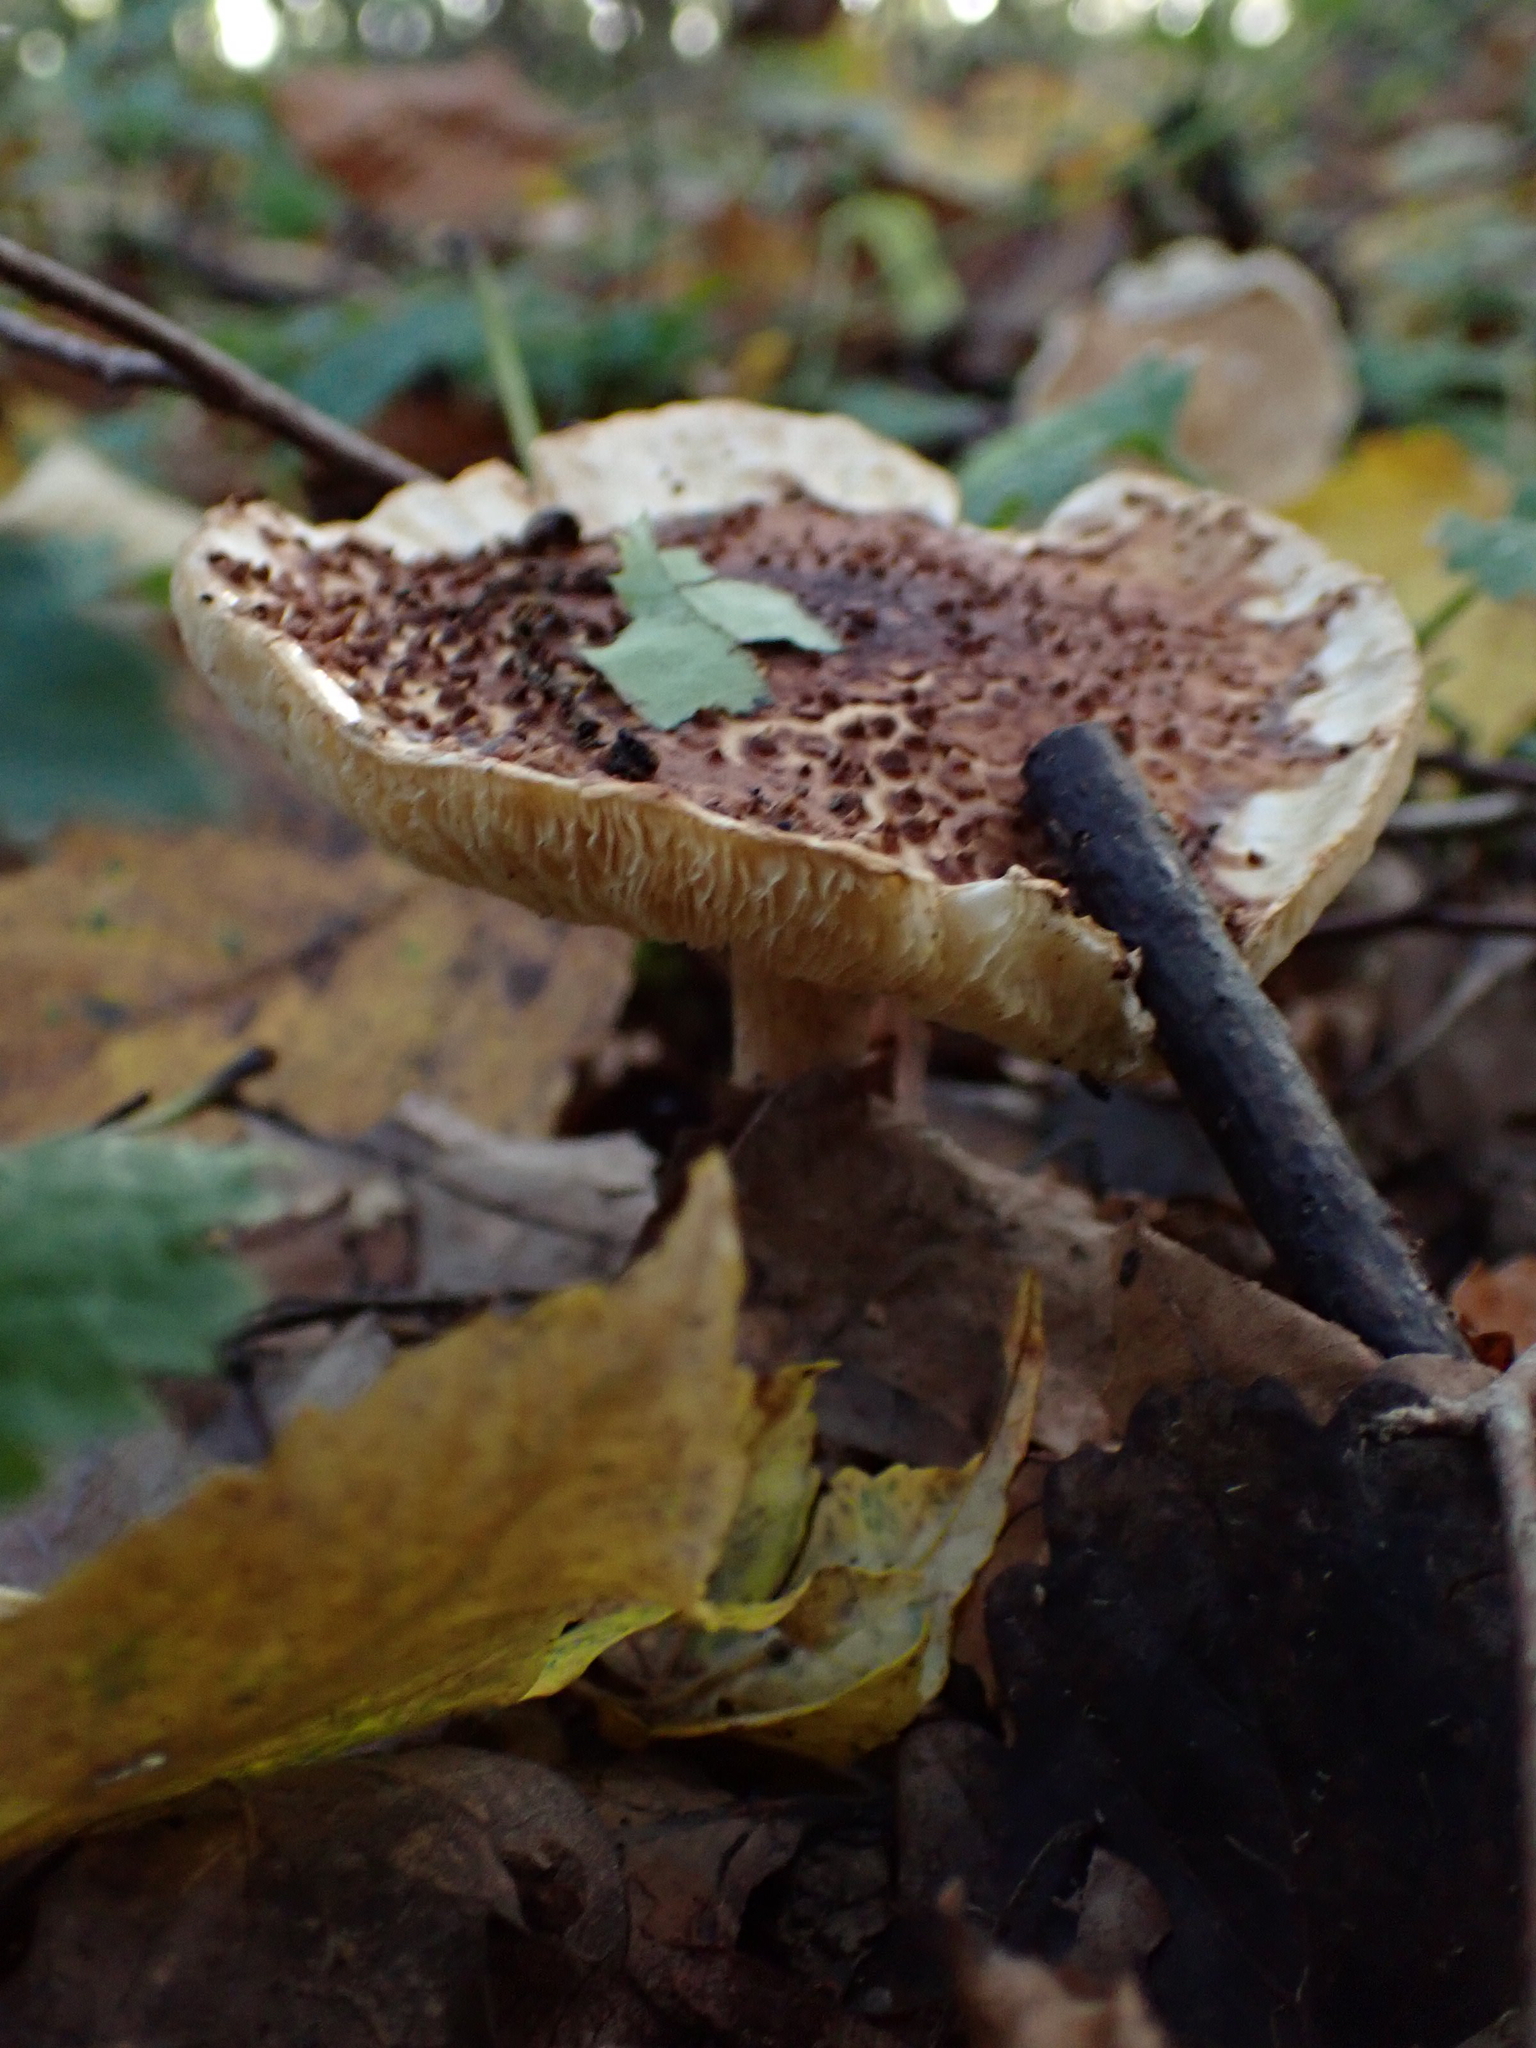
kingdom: Fungi
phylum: Basidiomycota
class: Agaricomycetes
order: Agaricales
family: Agaricaceae
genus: Echinoderma
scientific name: Echinoderma asperum
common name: Freckled dapperling
